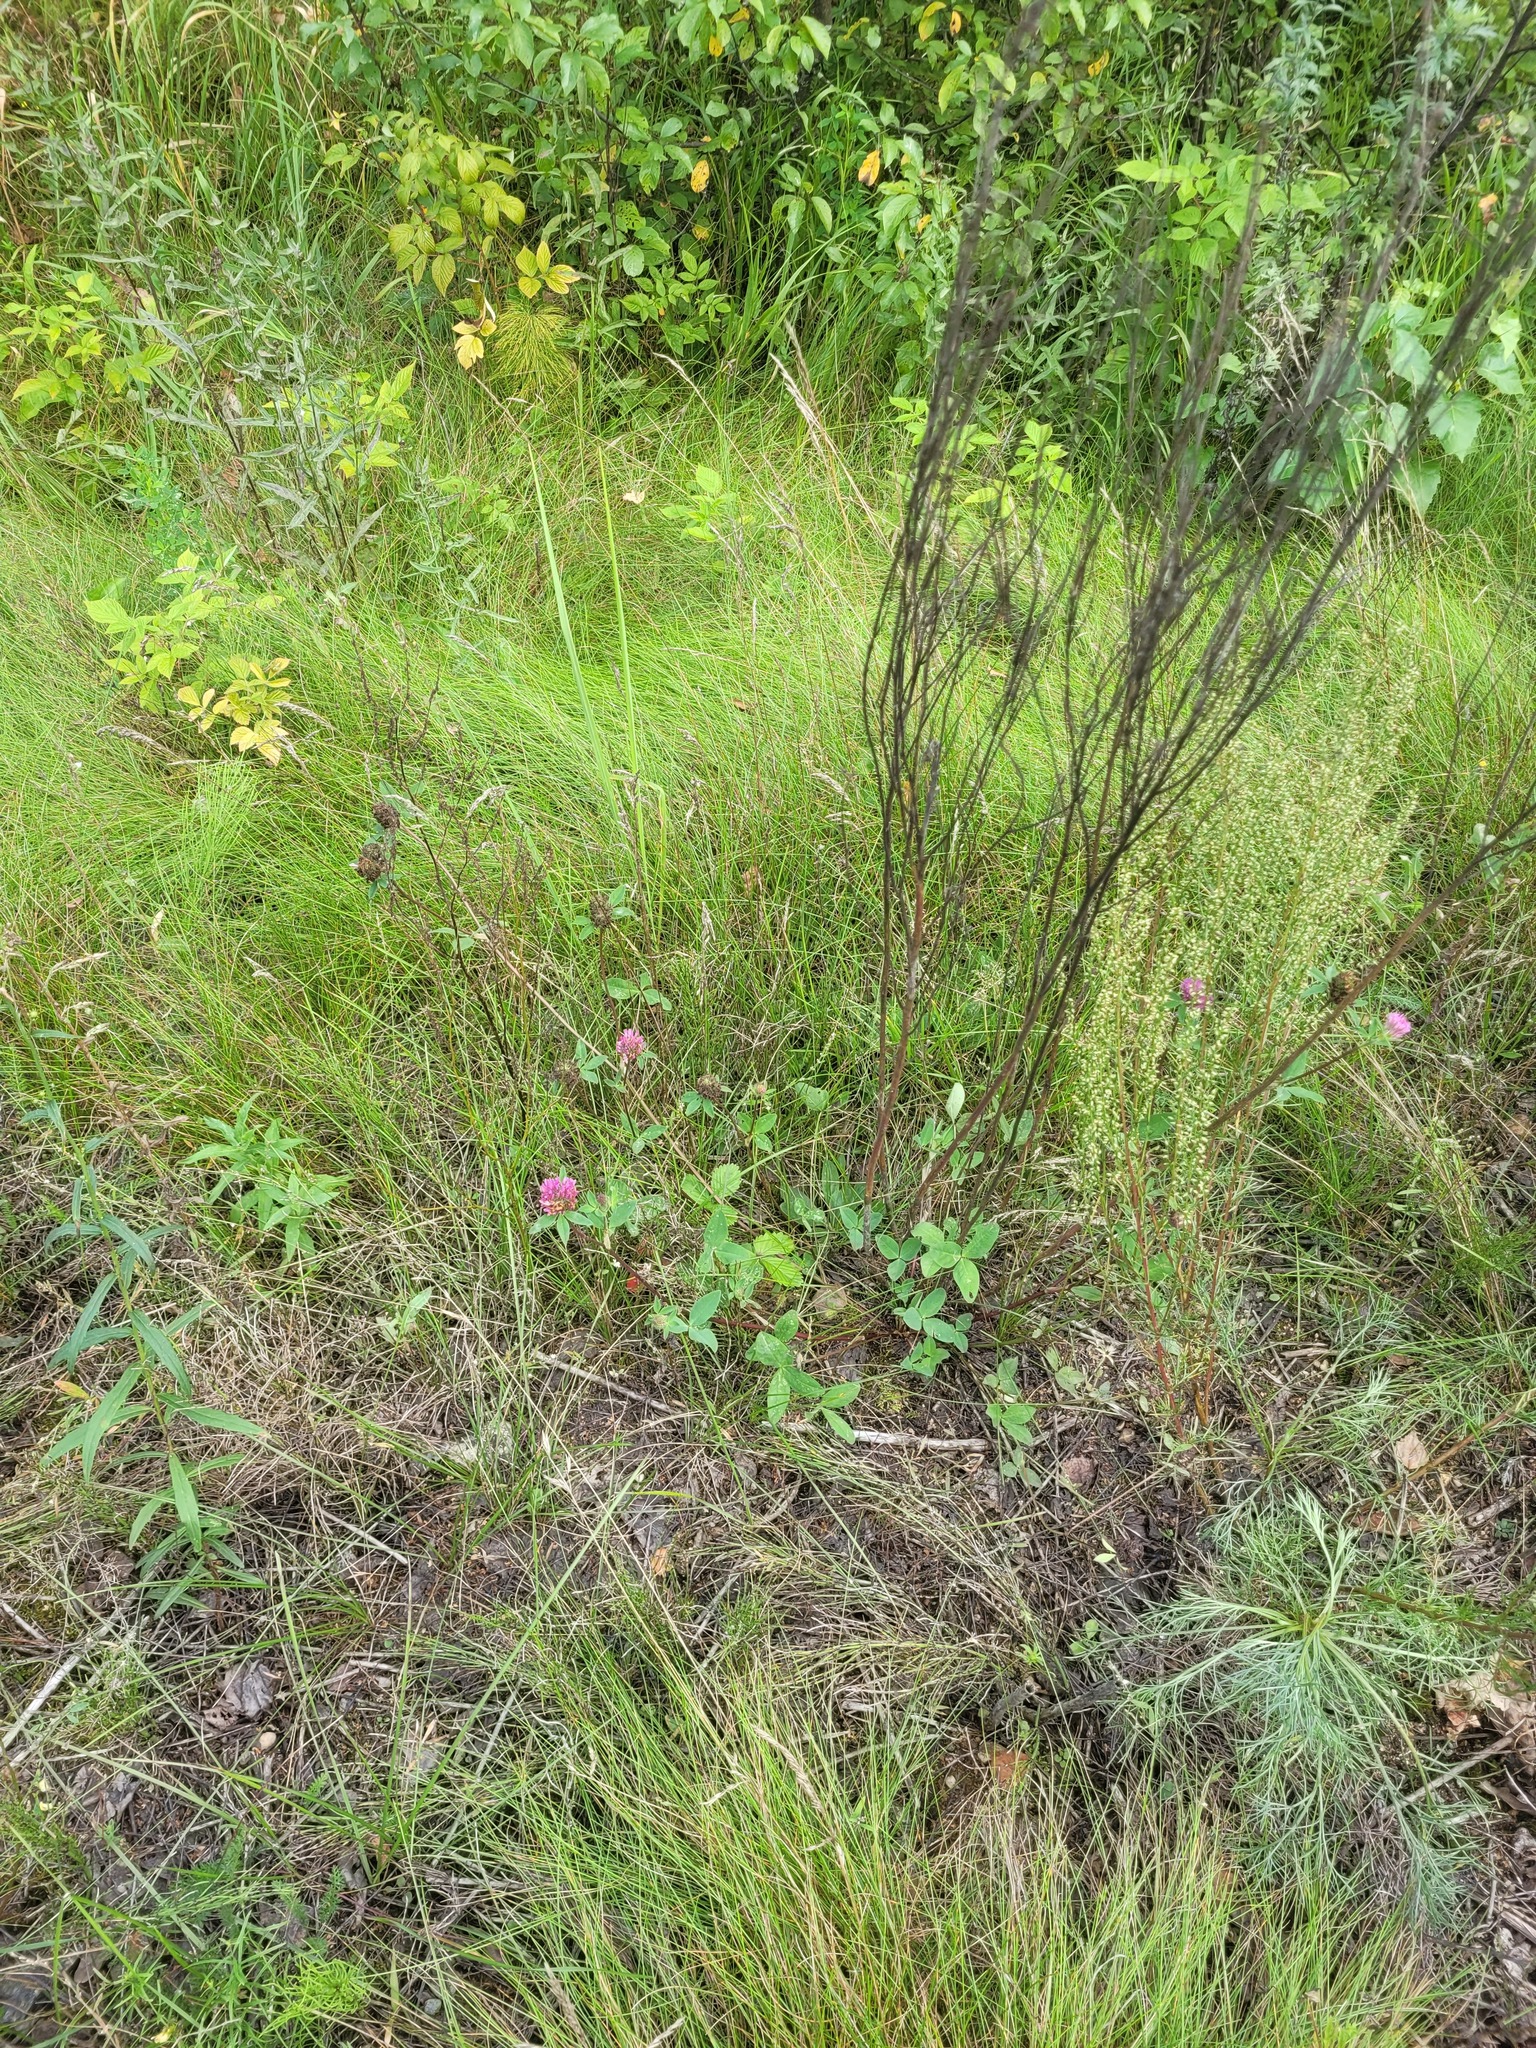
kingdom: Plantae
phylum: Tracheophyta
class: Magnoliopsida
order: Fabales
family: Fabaceae
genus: Trifolium
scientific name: Trifolium pratense
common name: Red clover
